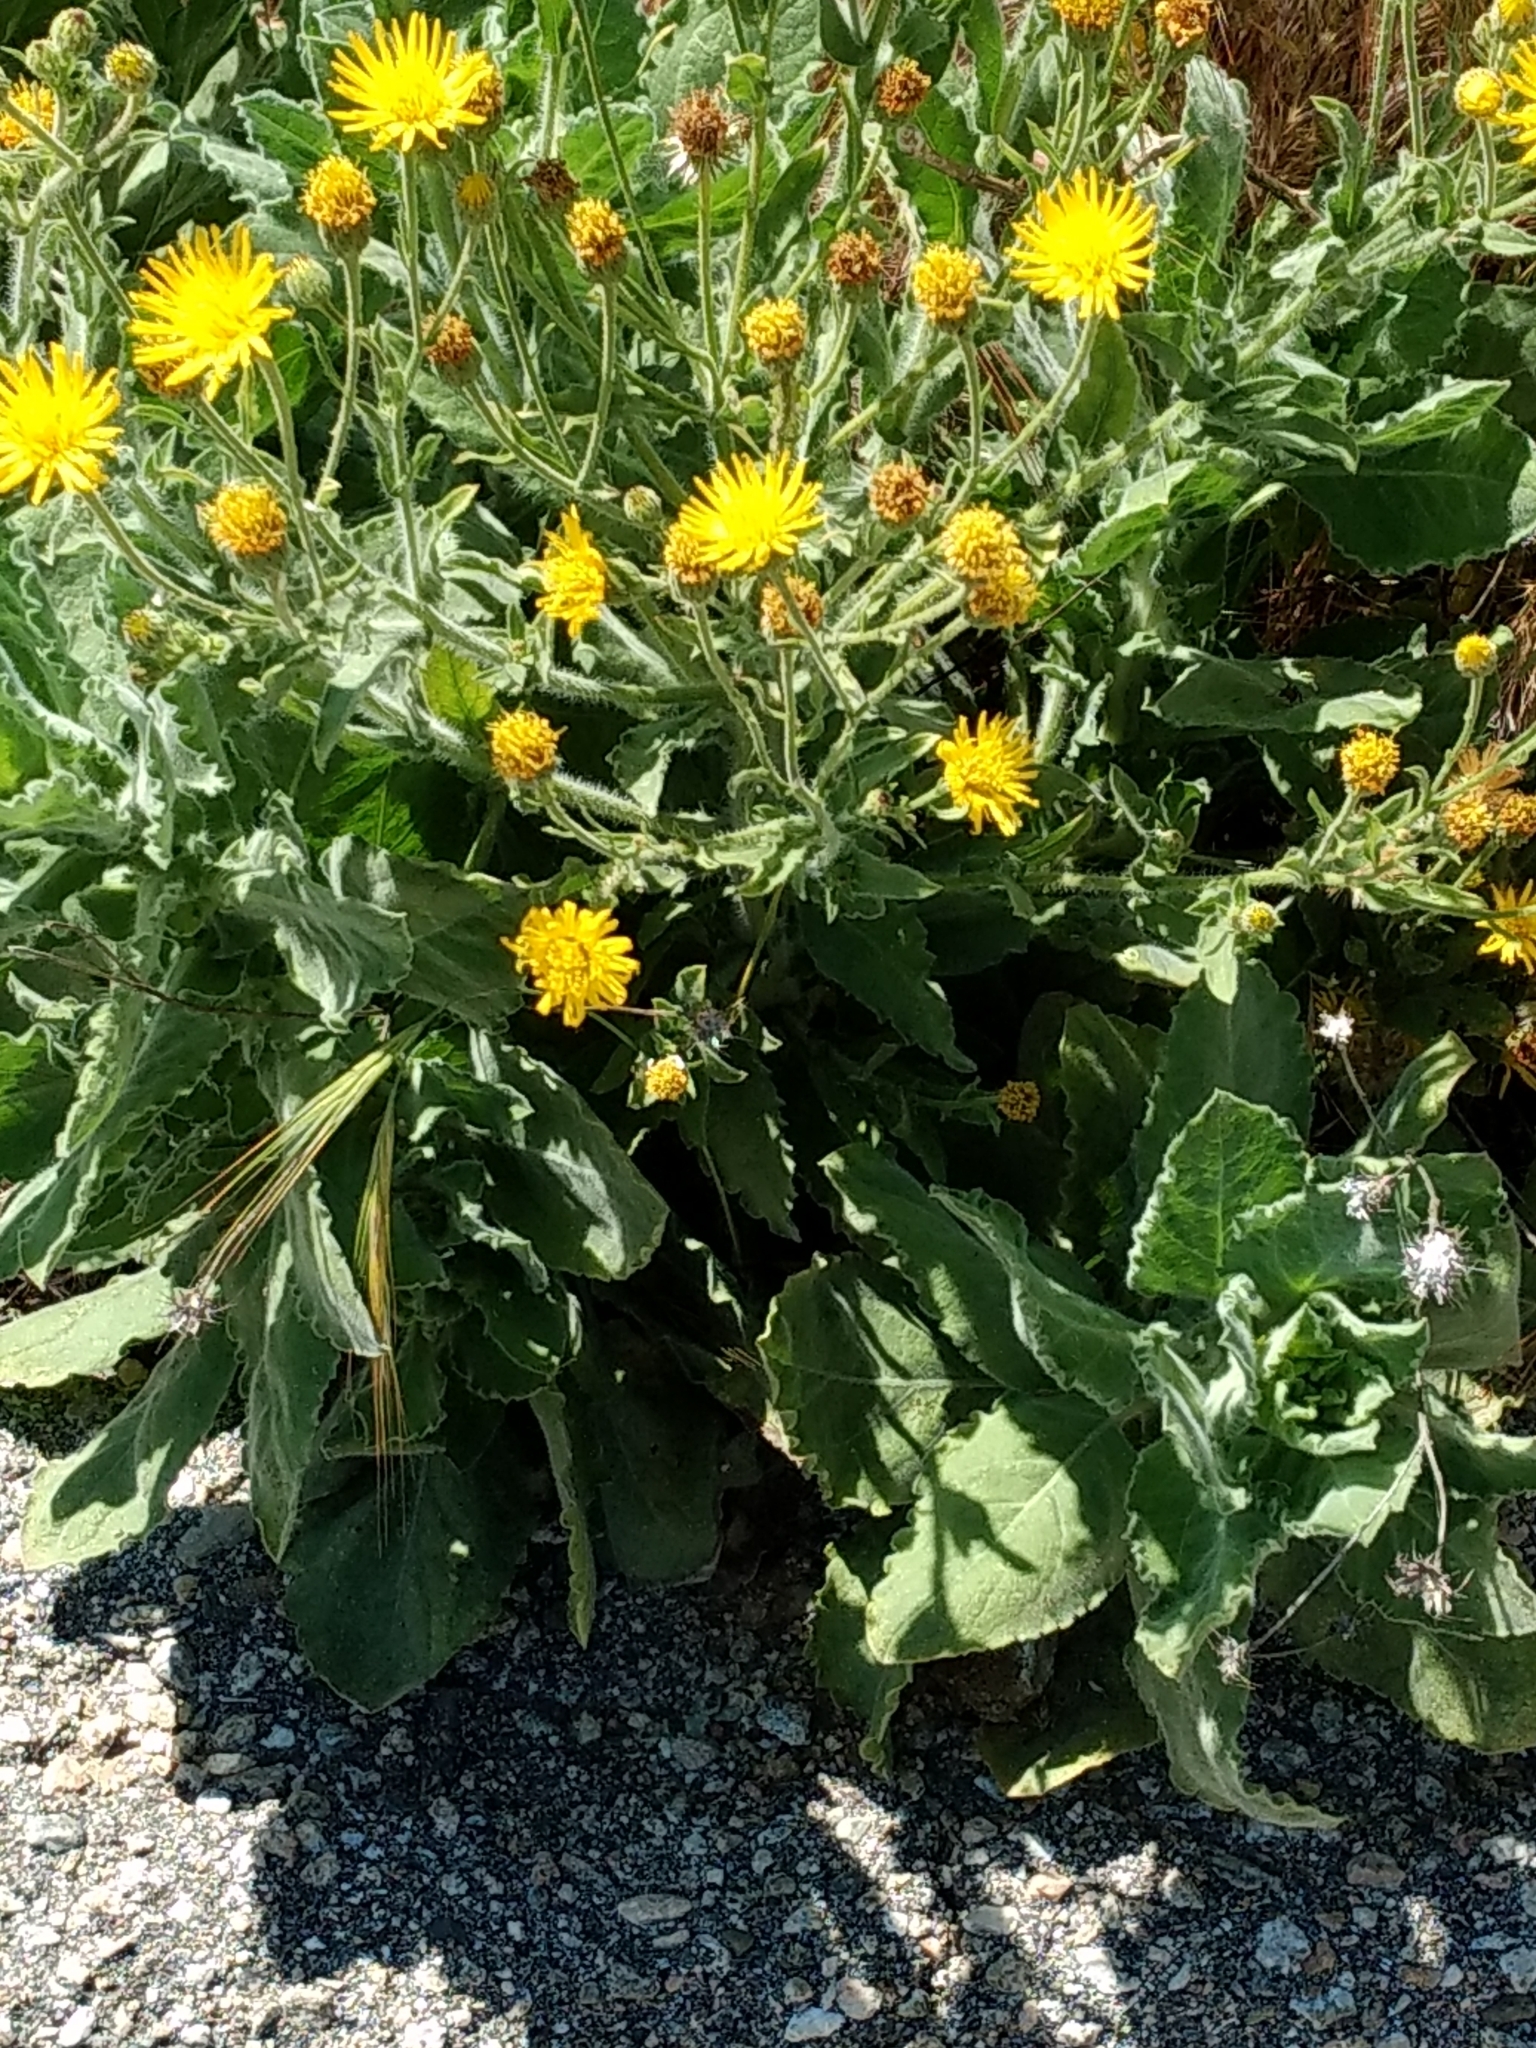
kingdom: Plantae
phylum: Tracheophyta
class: Magnoliopsida
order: Asterales
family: Asteraceae
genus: Heterotheca
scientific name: Heterotheca grandiflora
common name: Telegraphweed
